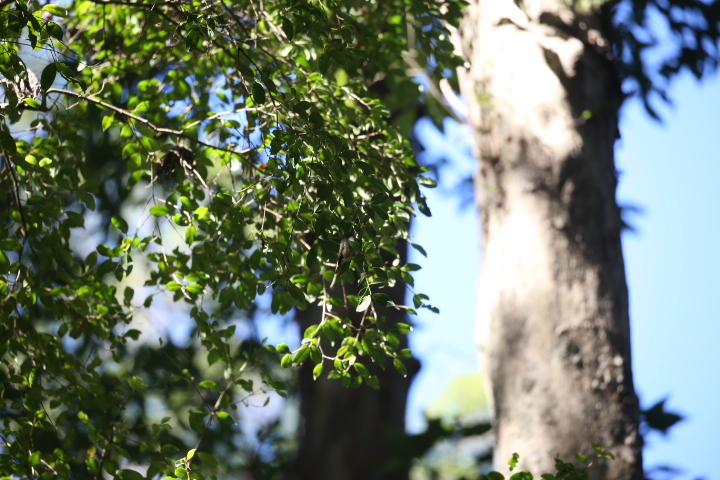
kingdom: Animalia
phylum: Chordata
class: Aves
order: Passeriformes
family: Acanthizidae
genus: Acanthiza
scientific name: Acanthiza pusilla
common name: Brown thornbill
